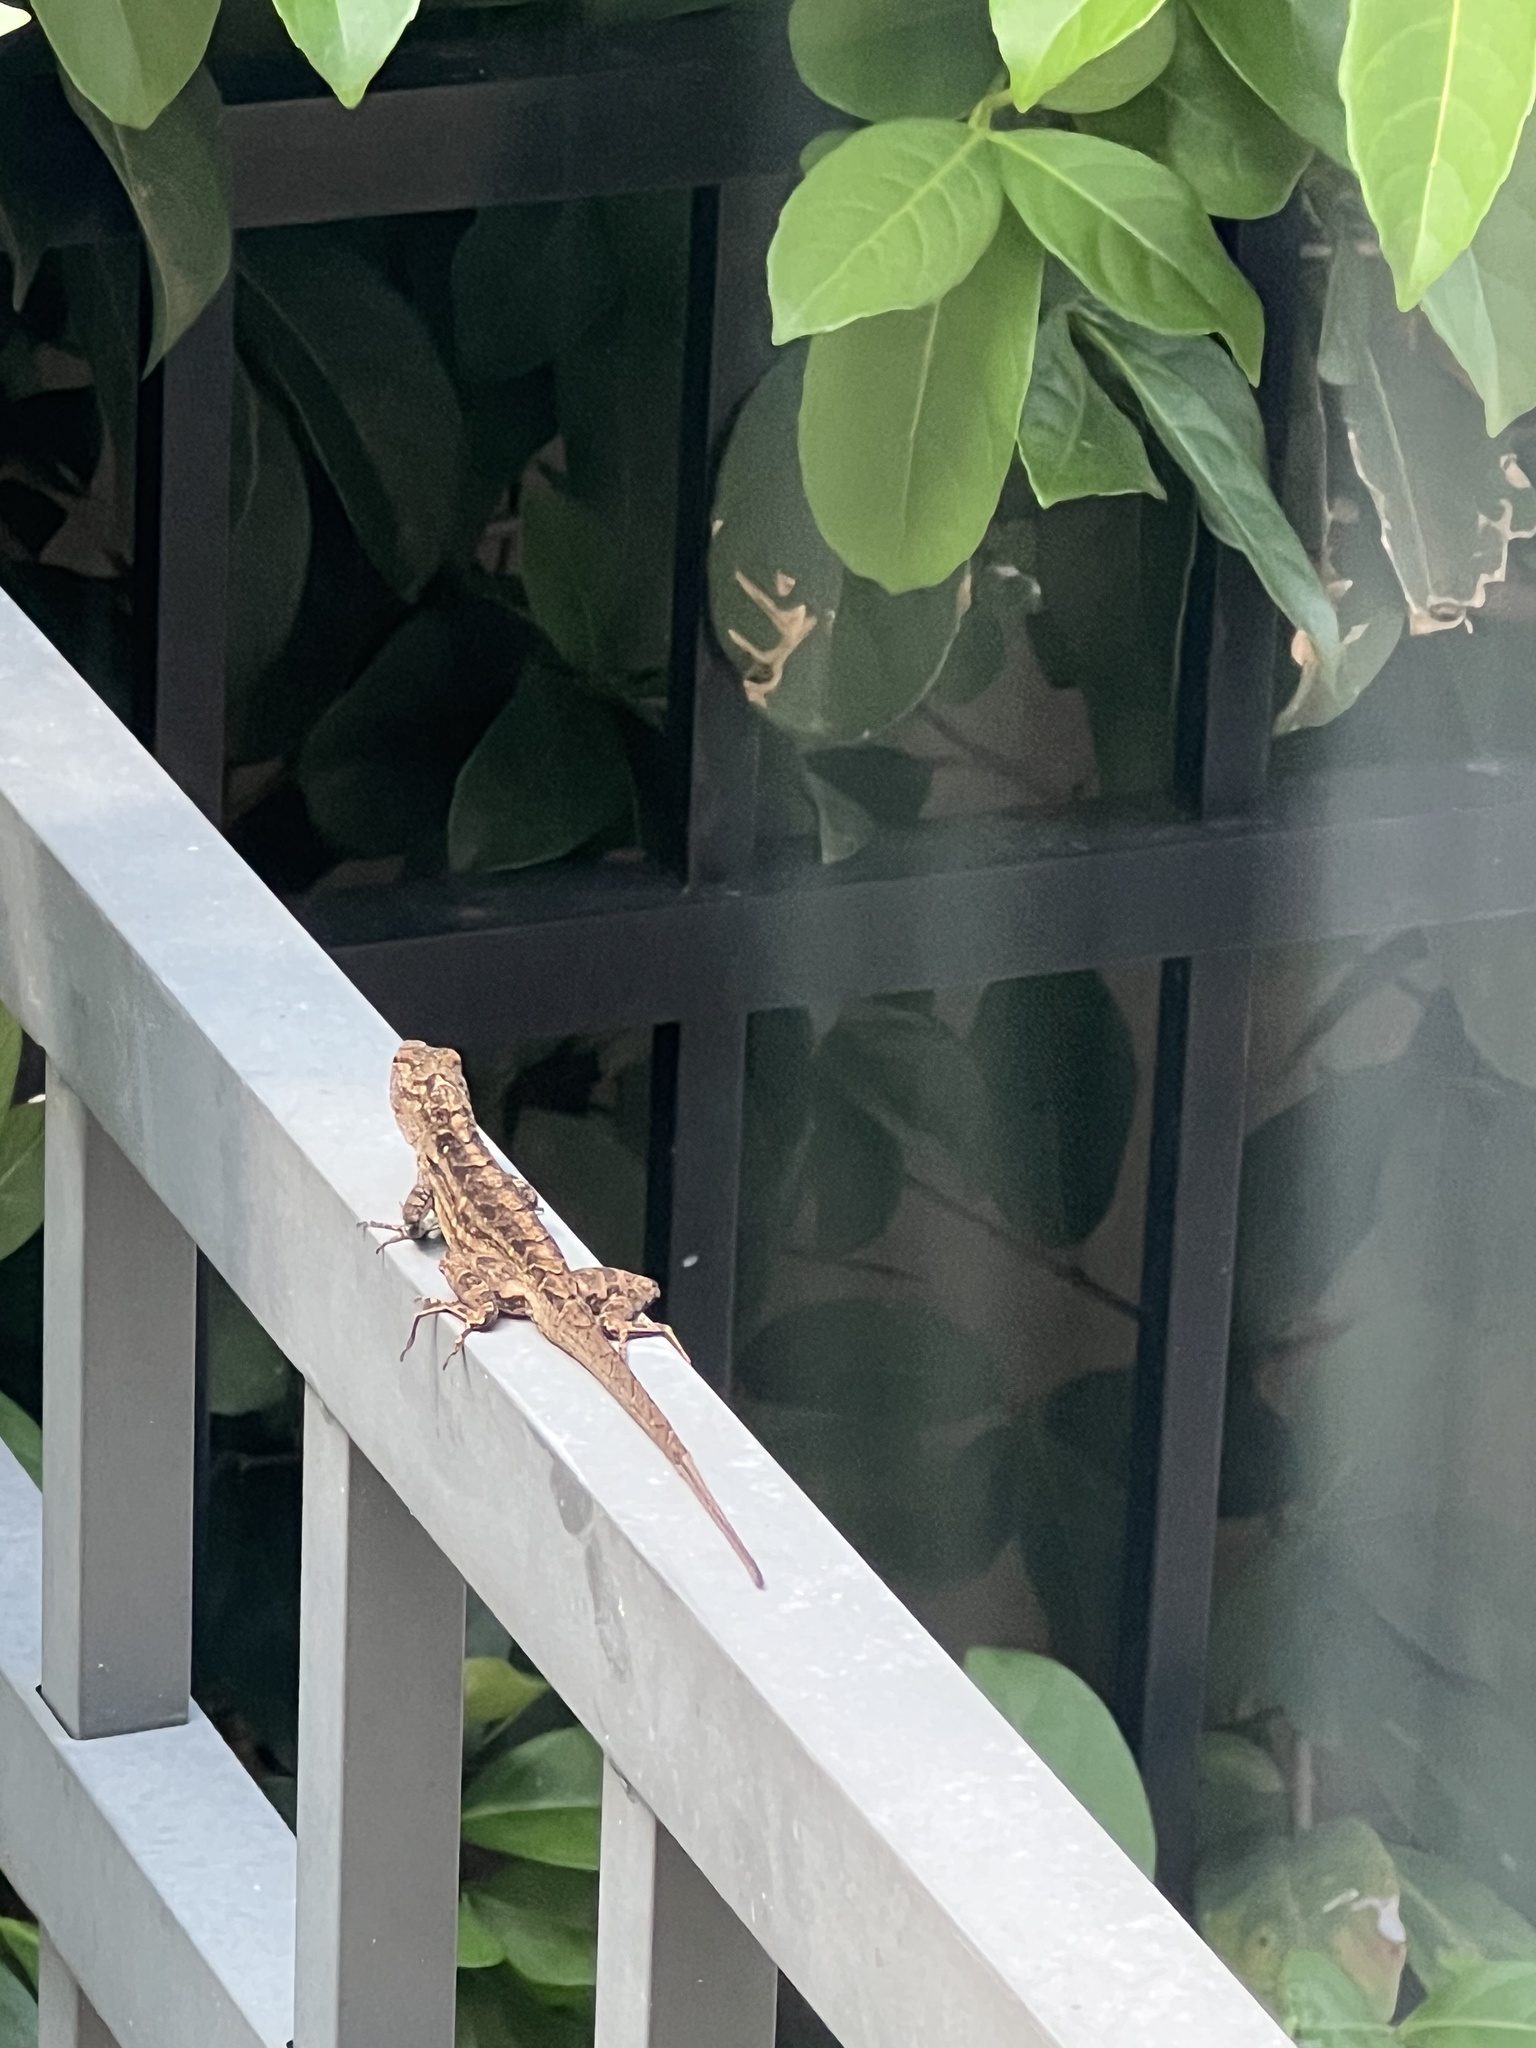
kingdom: Animalia
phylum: Chordata
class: Squamata
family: Dactyloidae
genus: Anolis
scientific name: Anolis sagrei
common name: Brown anole
